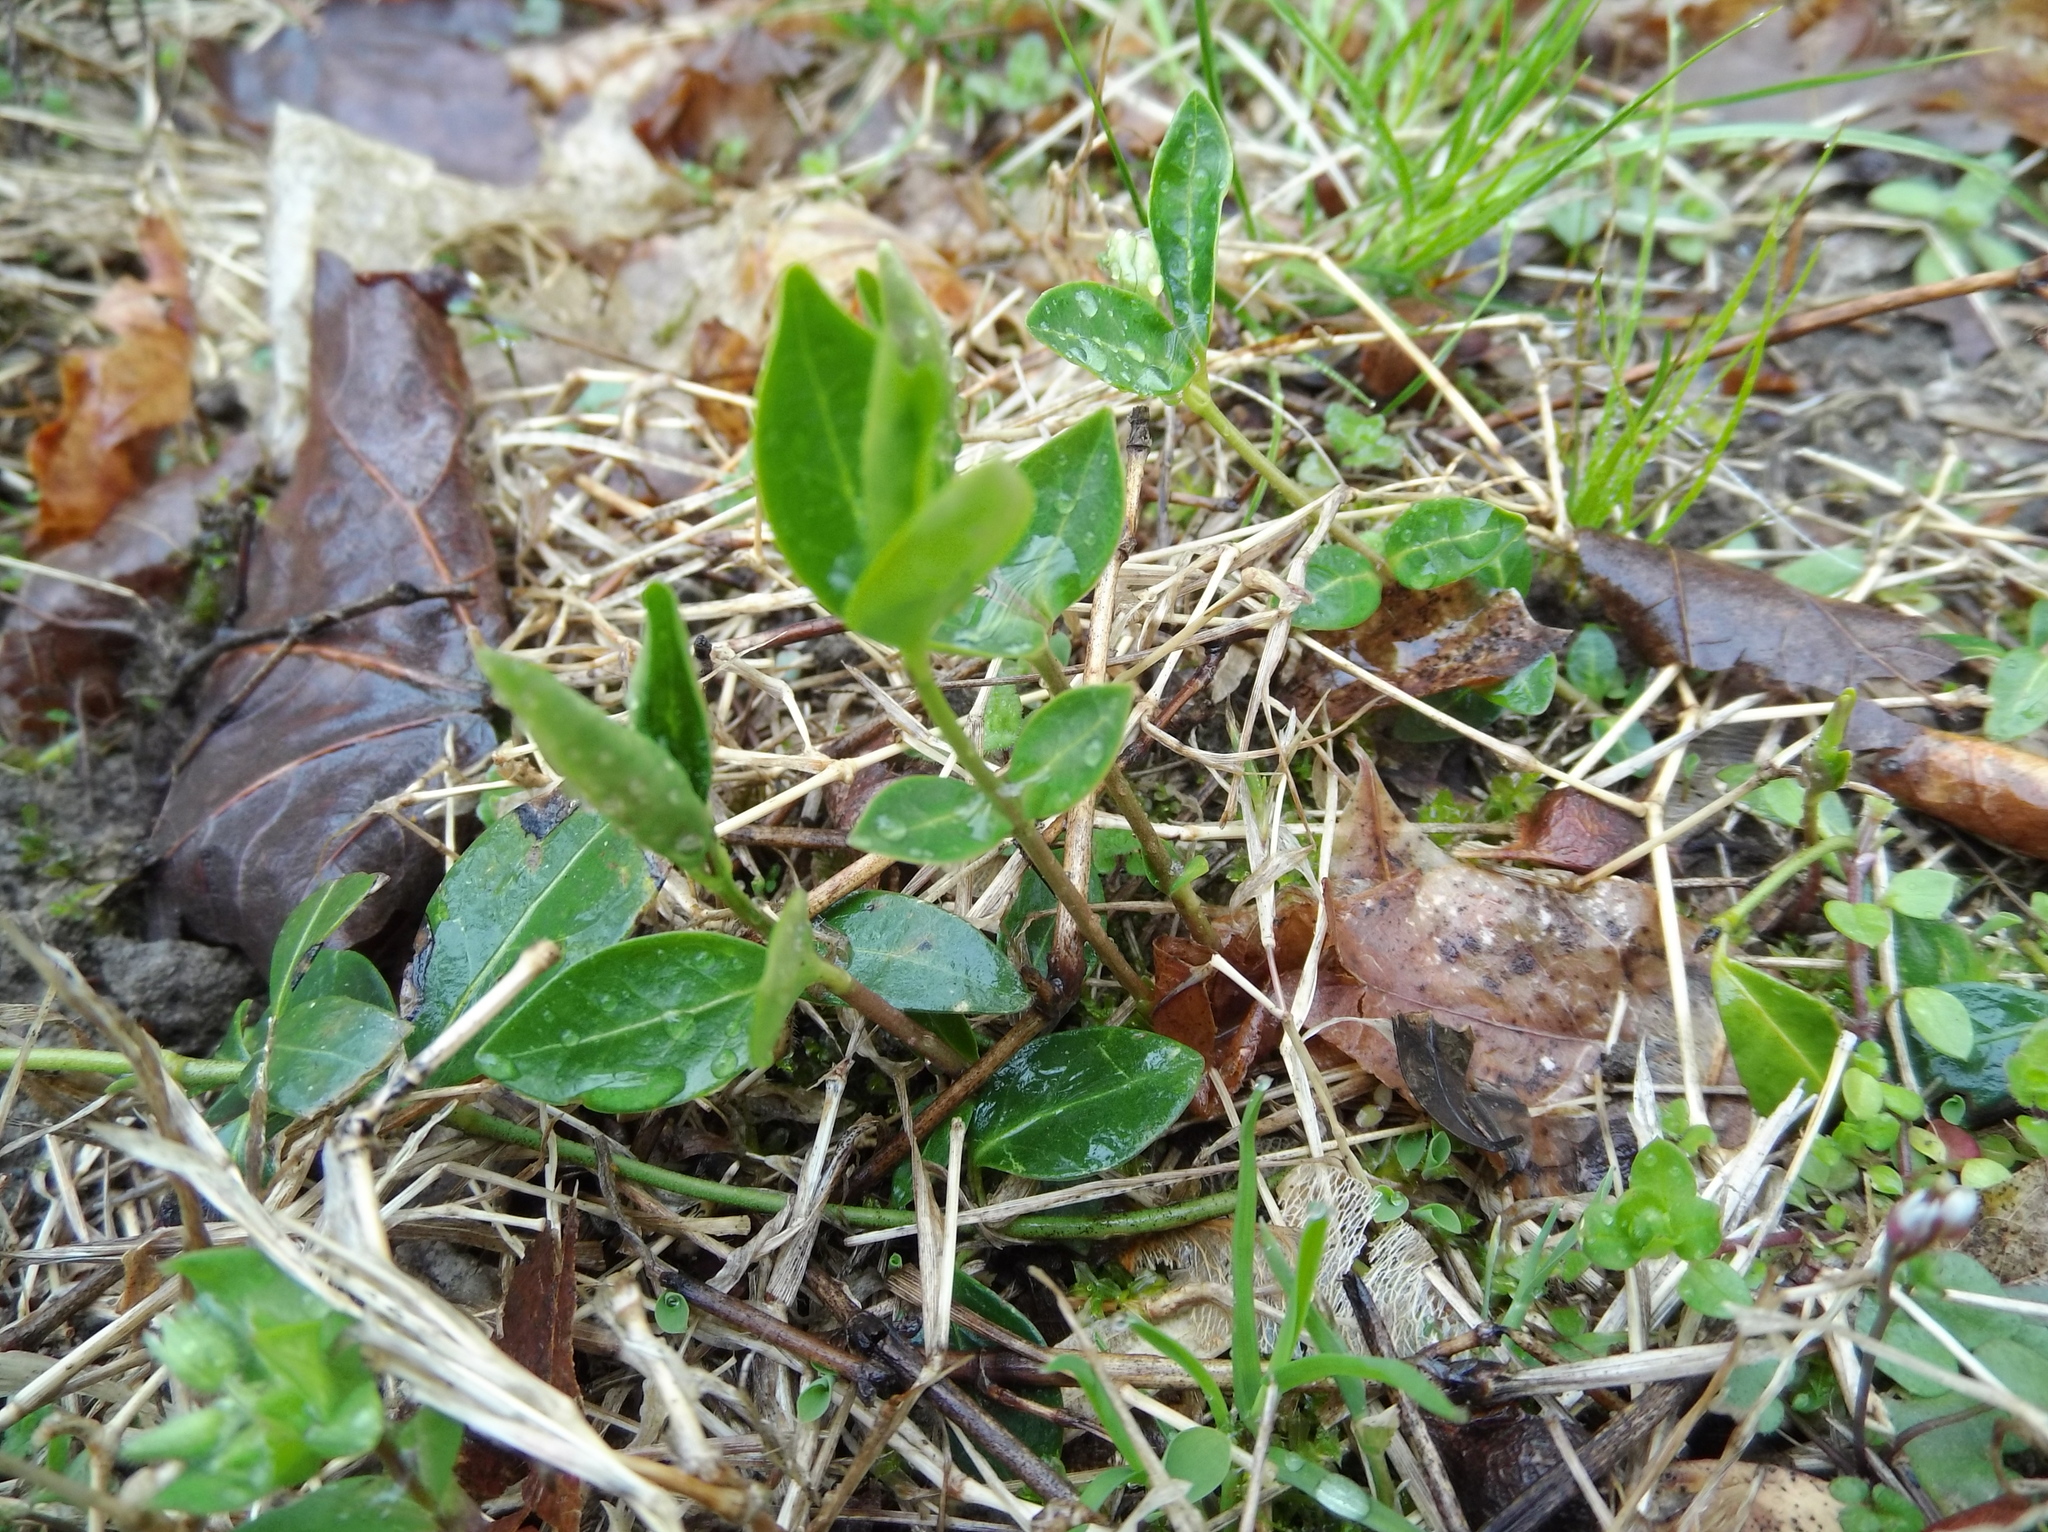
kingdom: Plantae
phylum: Tracheophyta
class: Magnoliopsida
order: Gentianales
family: Apocynaceae
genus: Vinca
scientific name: Vinca minor
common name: Lesser periwinkle
